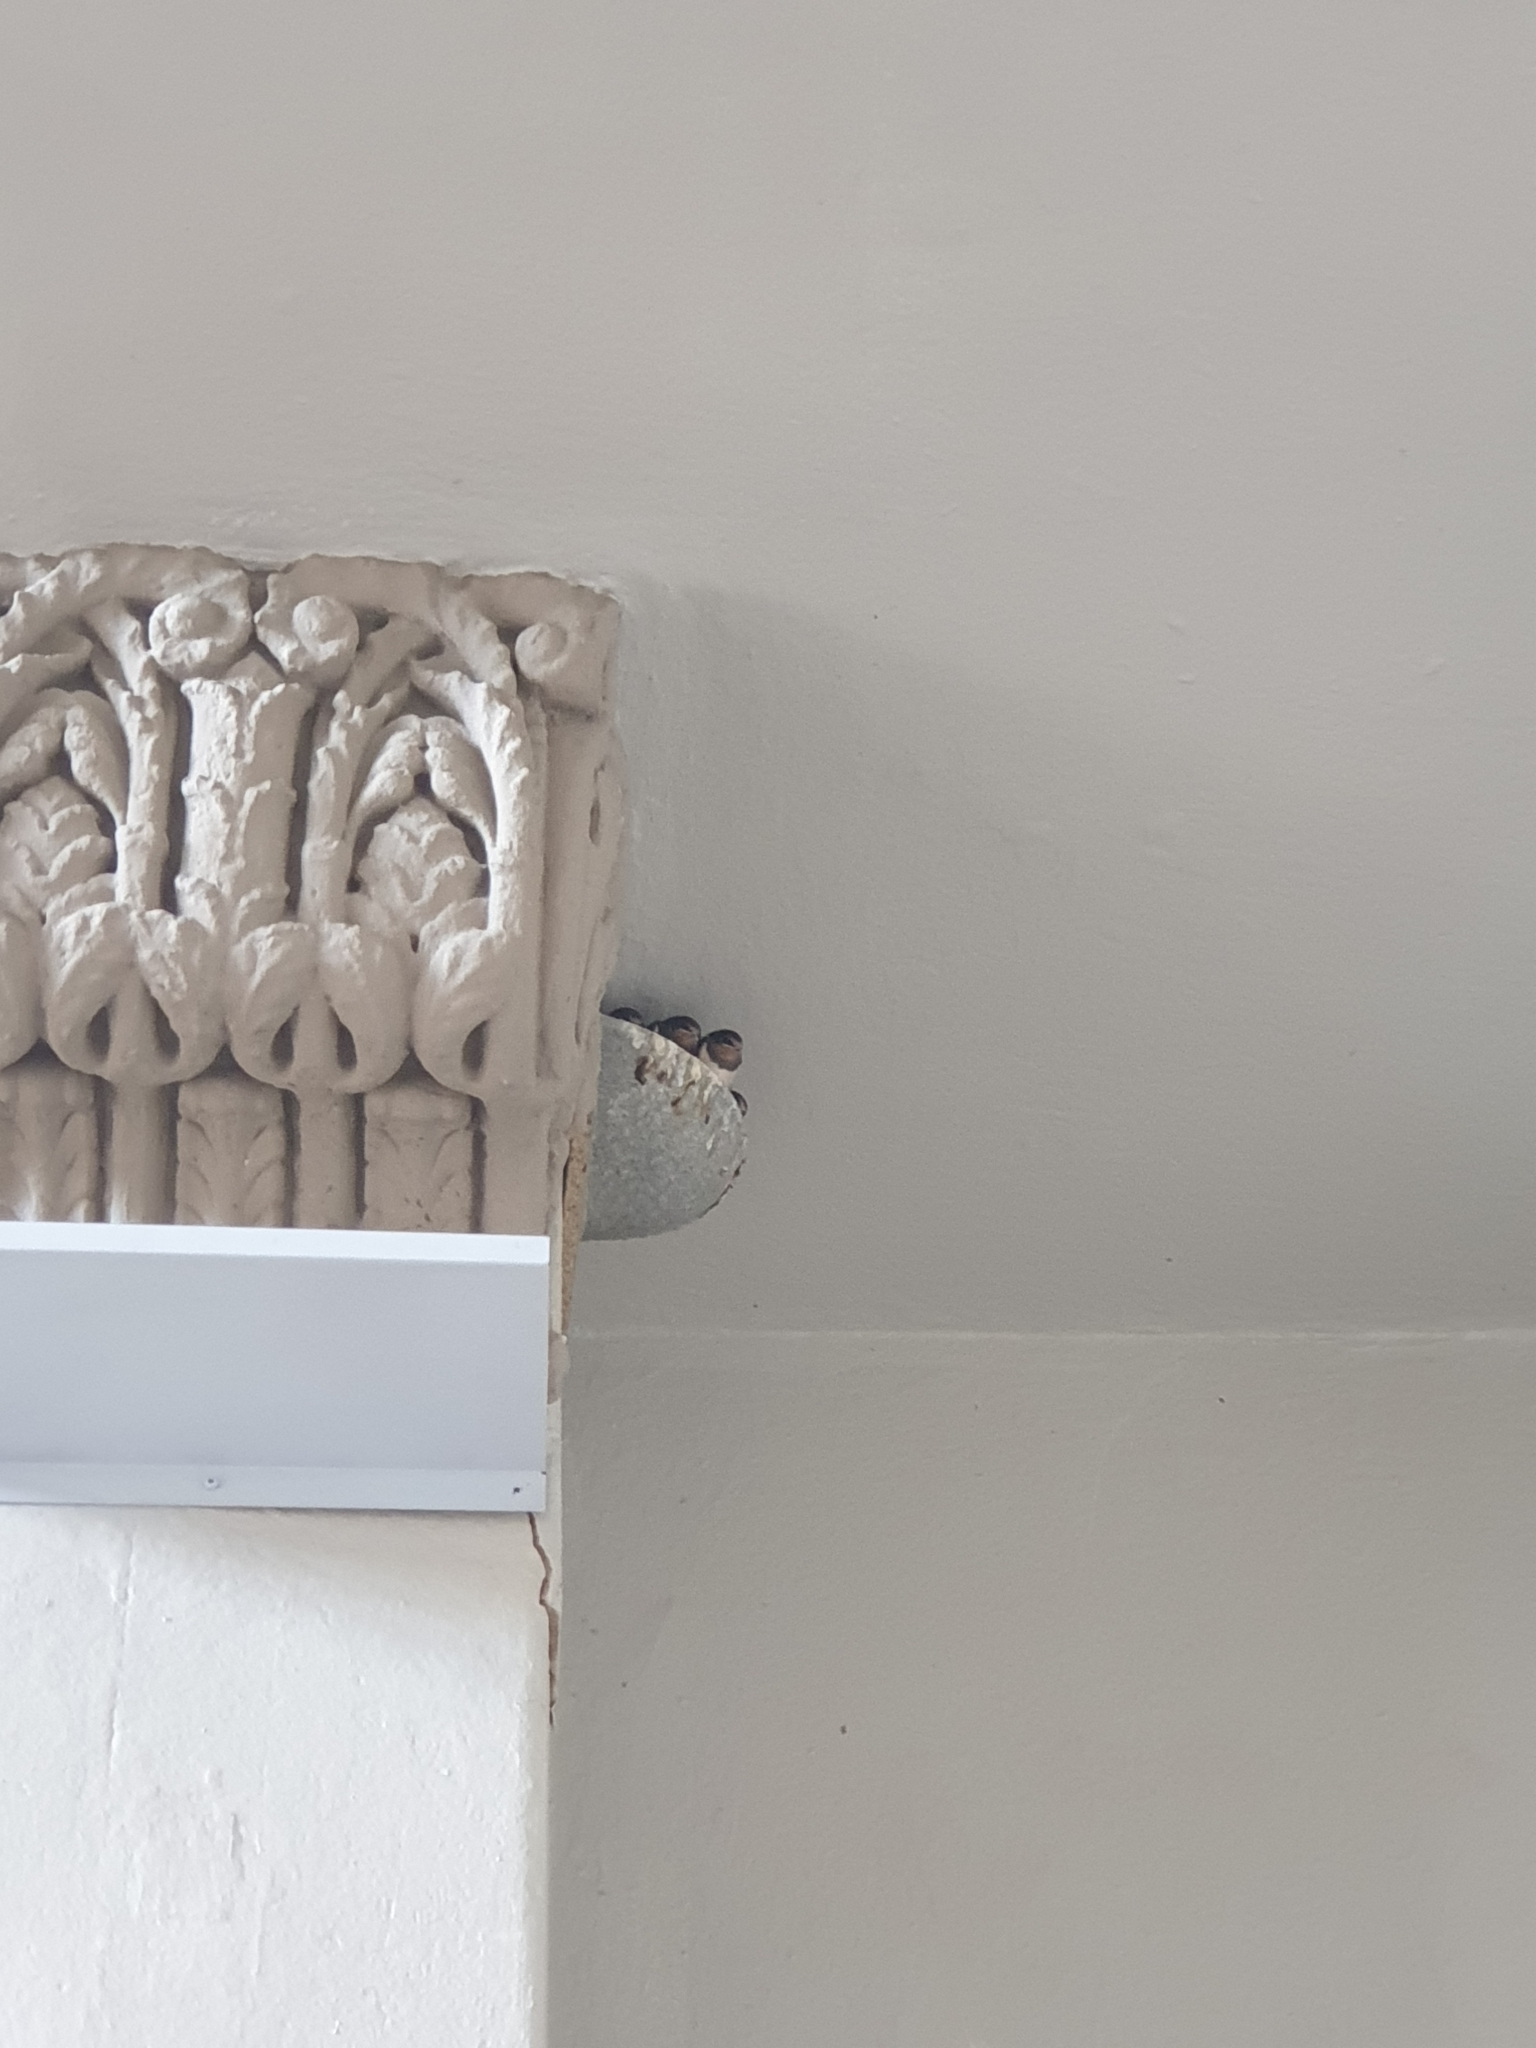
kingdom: Animalia
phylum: Chordata
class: Aves
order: Passeriformes
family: Hirundinidae
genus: Hirundo
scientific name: Hirundo rustica
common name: Barn swallow
